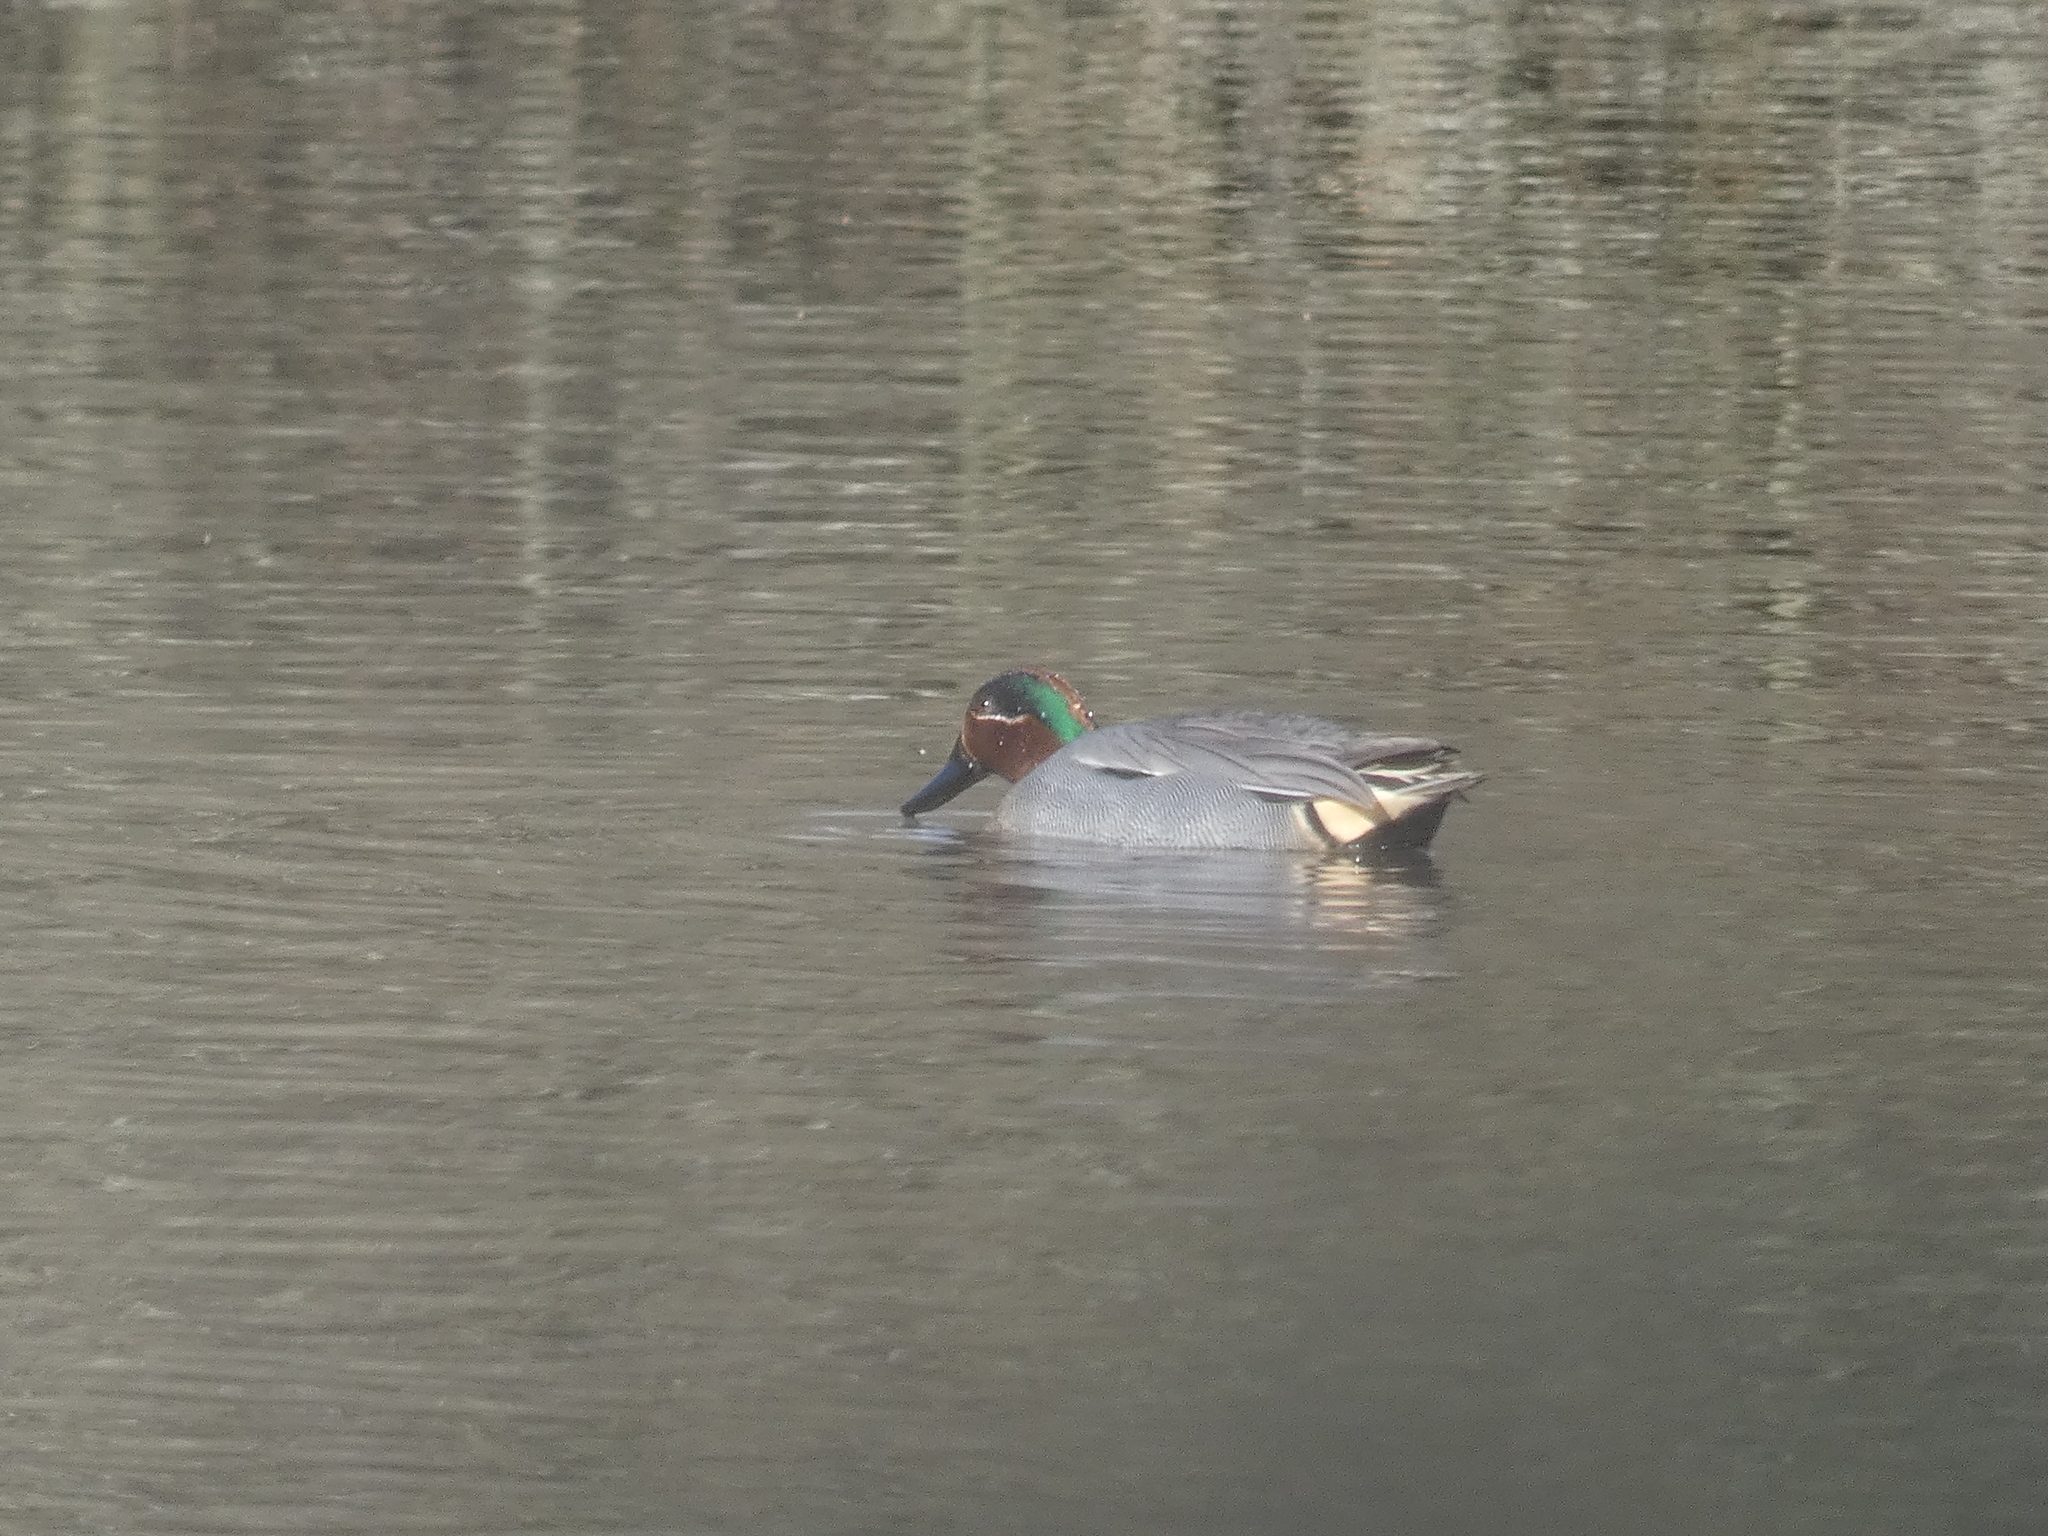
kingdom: Animalia
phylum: Chordata
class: Aves
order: Anseriformes
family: Anatidae
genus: Anas
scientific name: Anas crecca
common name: Eurasian teal
